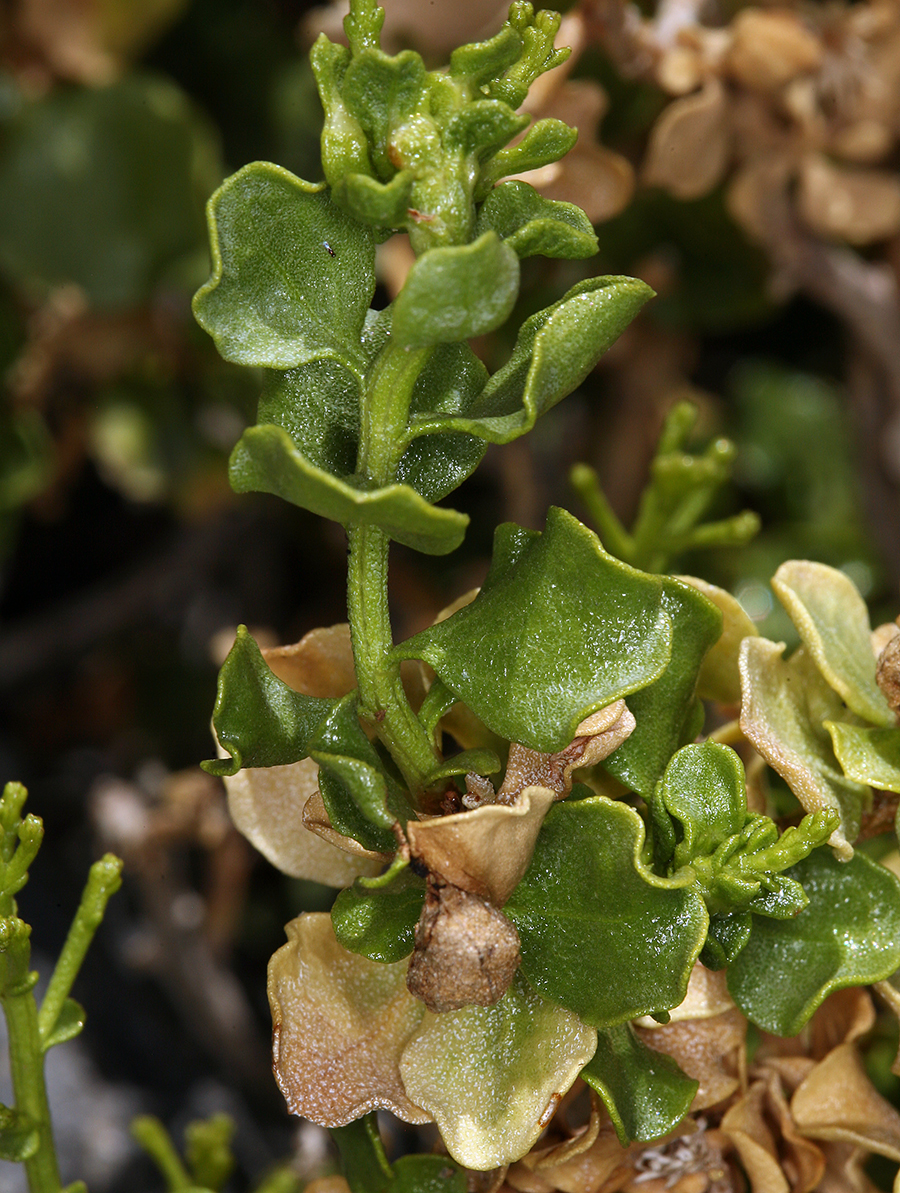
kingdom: Plantae
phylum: Tracheophyta
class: Magnoliopsida
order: Asterales
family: Asteraceae
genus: Ericameria
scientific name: Ericameria cuneata
